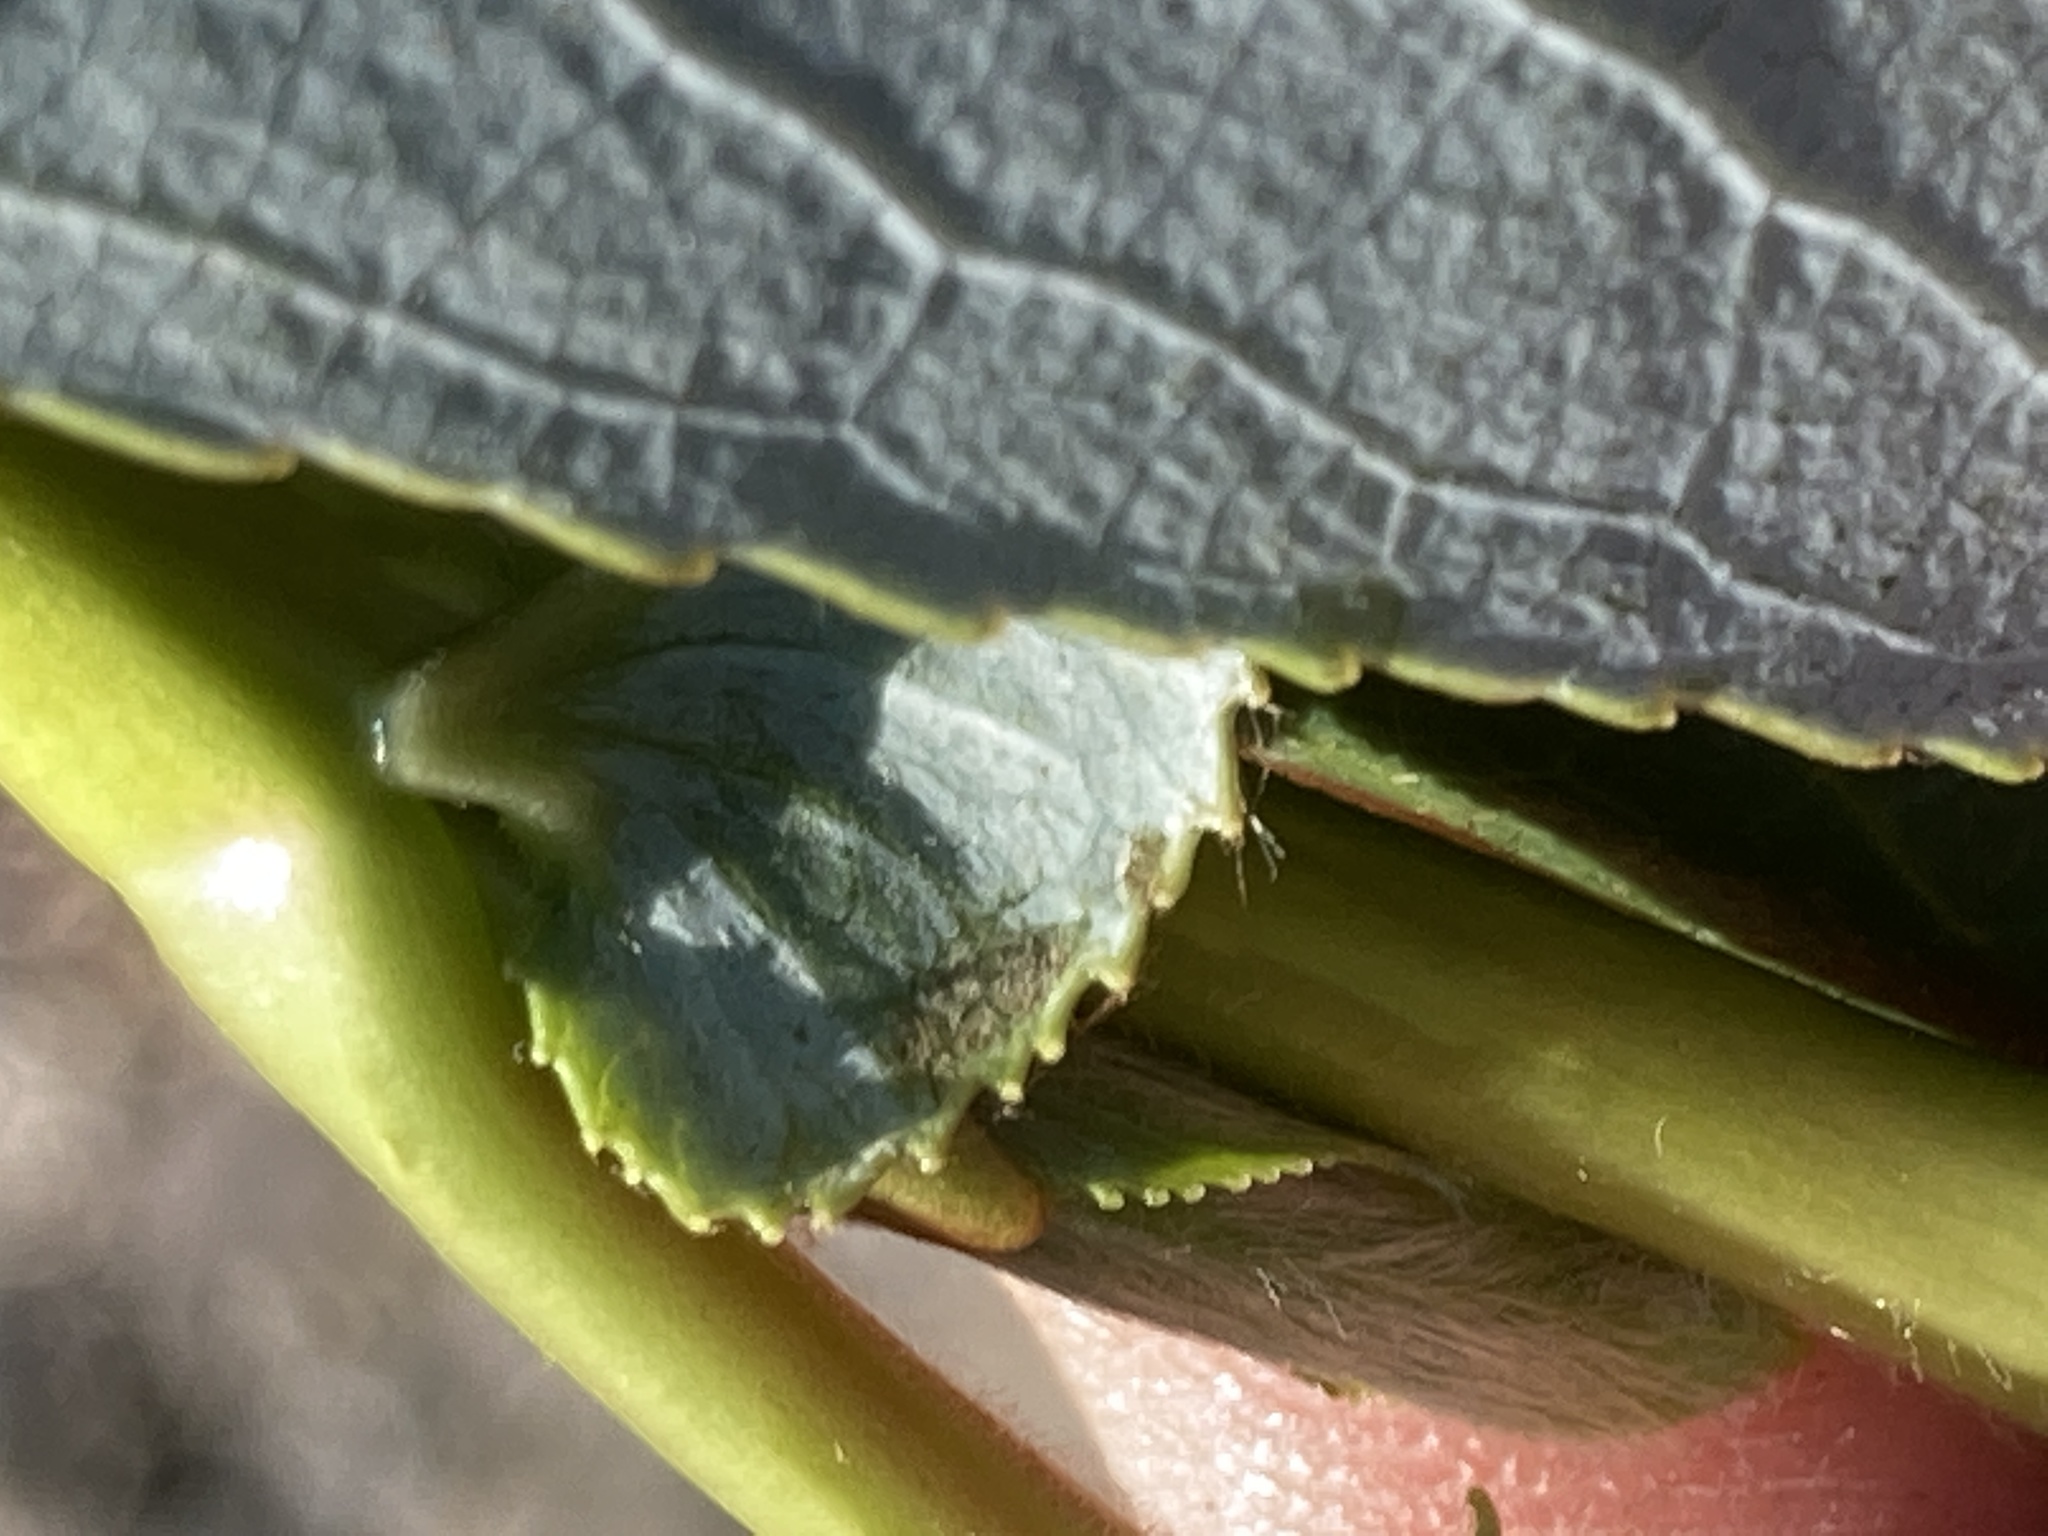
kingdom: Plantae
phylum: Tracheophyta
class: Magnoliopsida
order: Malpighiales
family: Salicaceae
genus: Salix
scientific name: Salix lucida
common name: Shining willow
